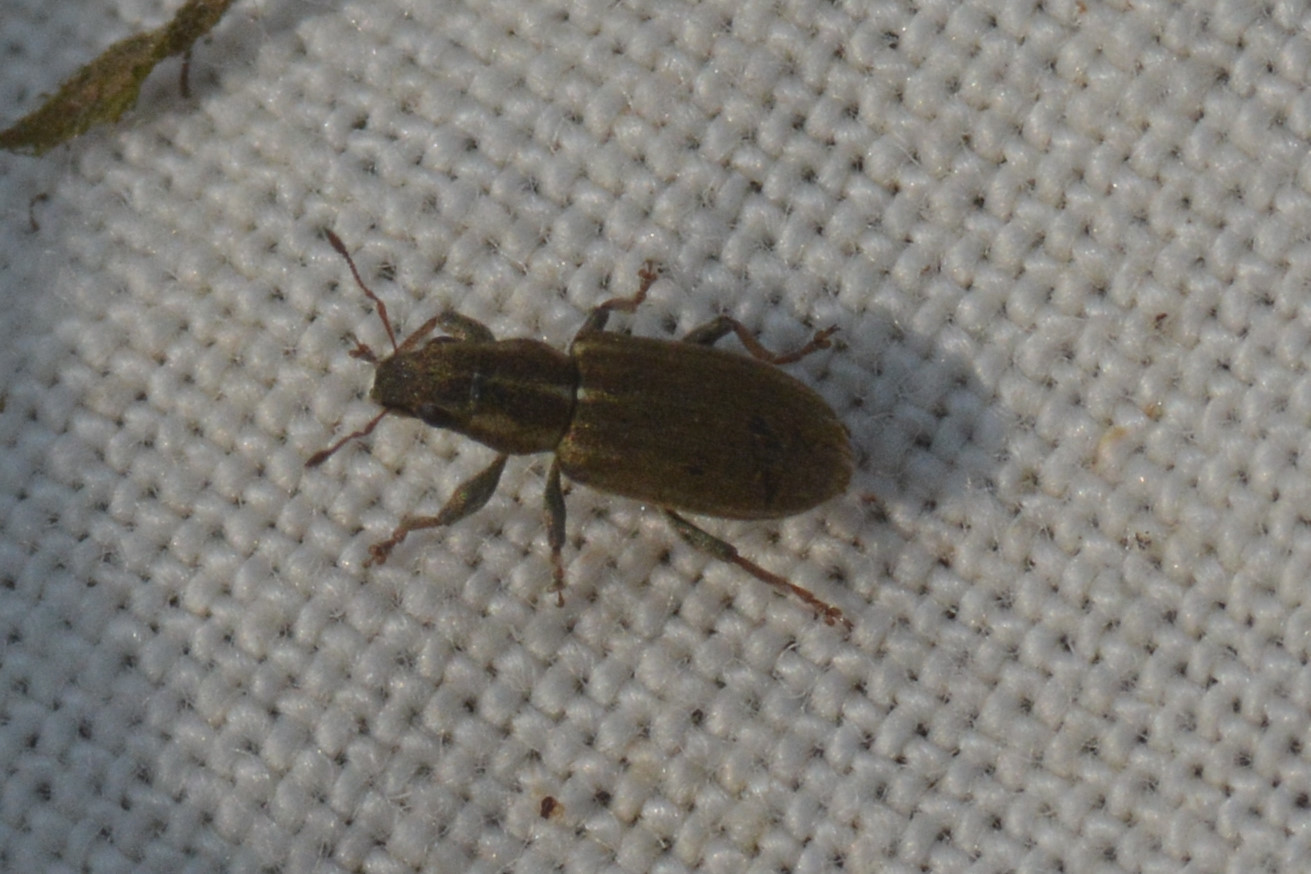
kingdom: Animalia
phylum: Arthropoda
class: Insecta
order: Coleoptera
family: Curculionidae
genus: Sitona
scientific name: Sitona lineatus
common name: Weevil
